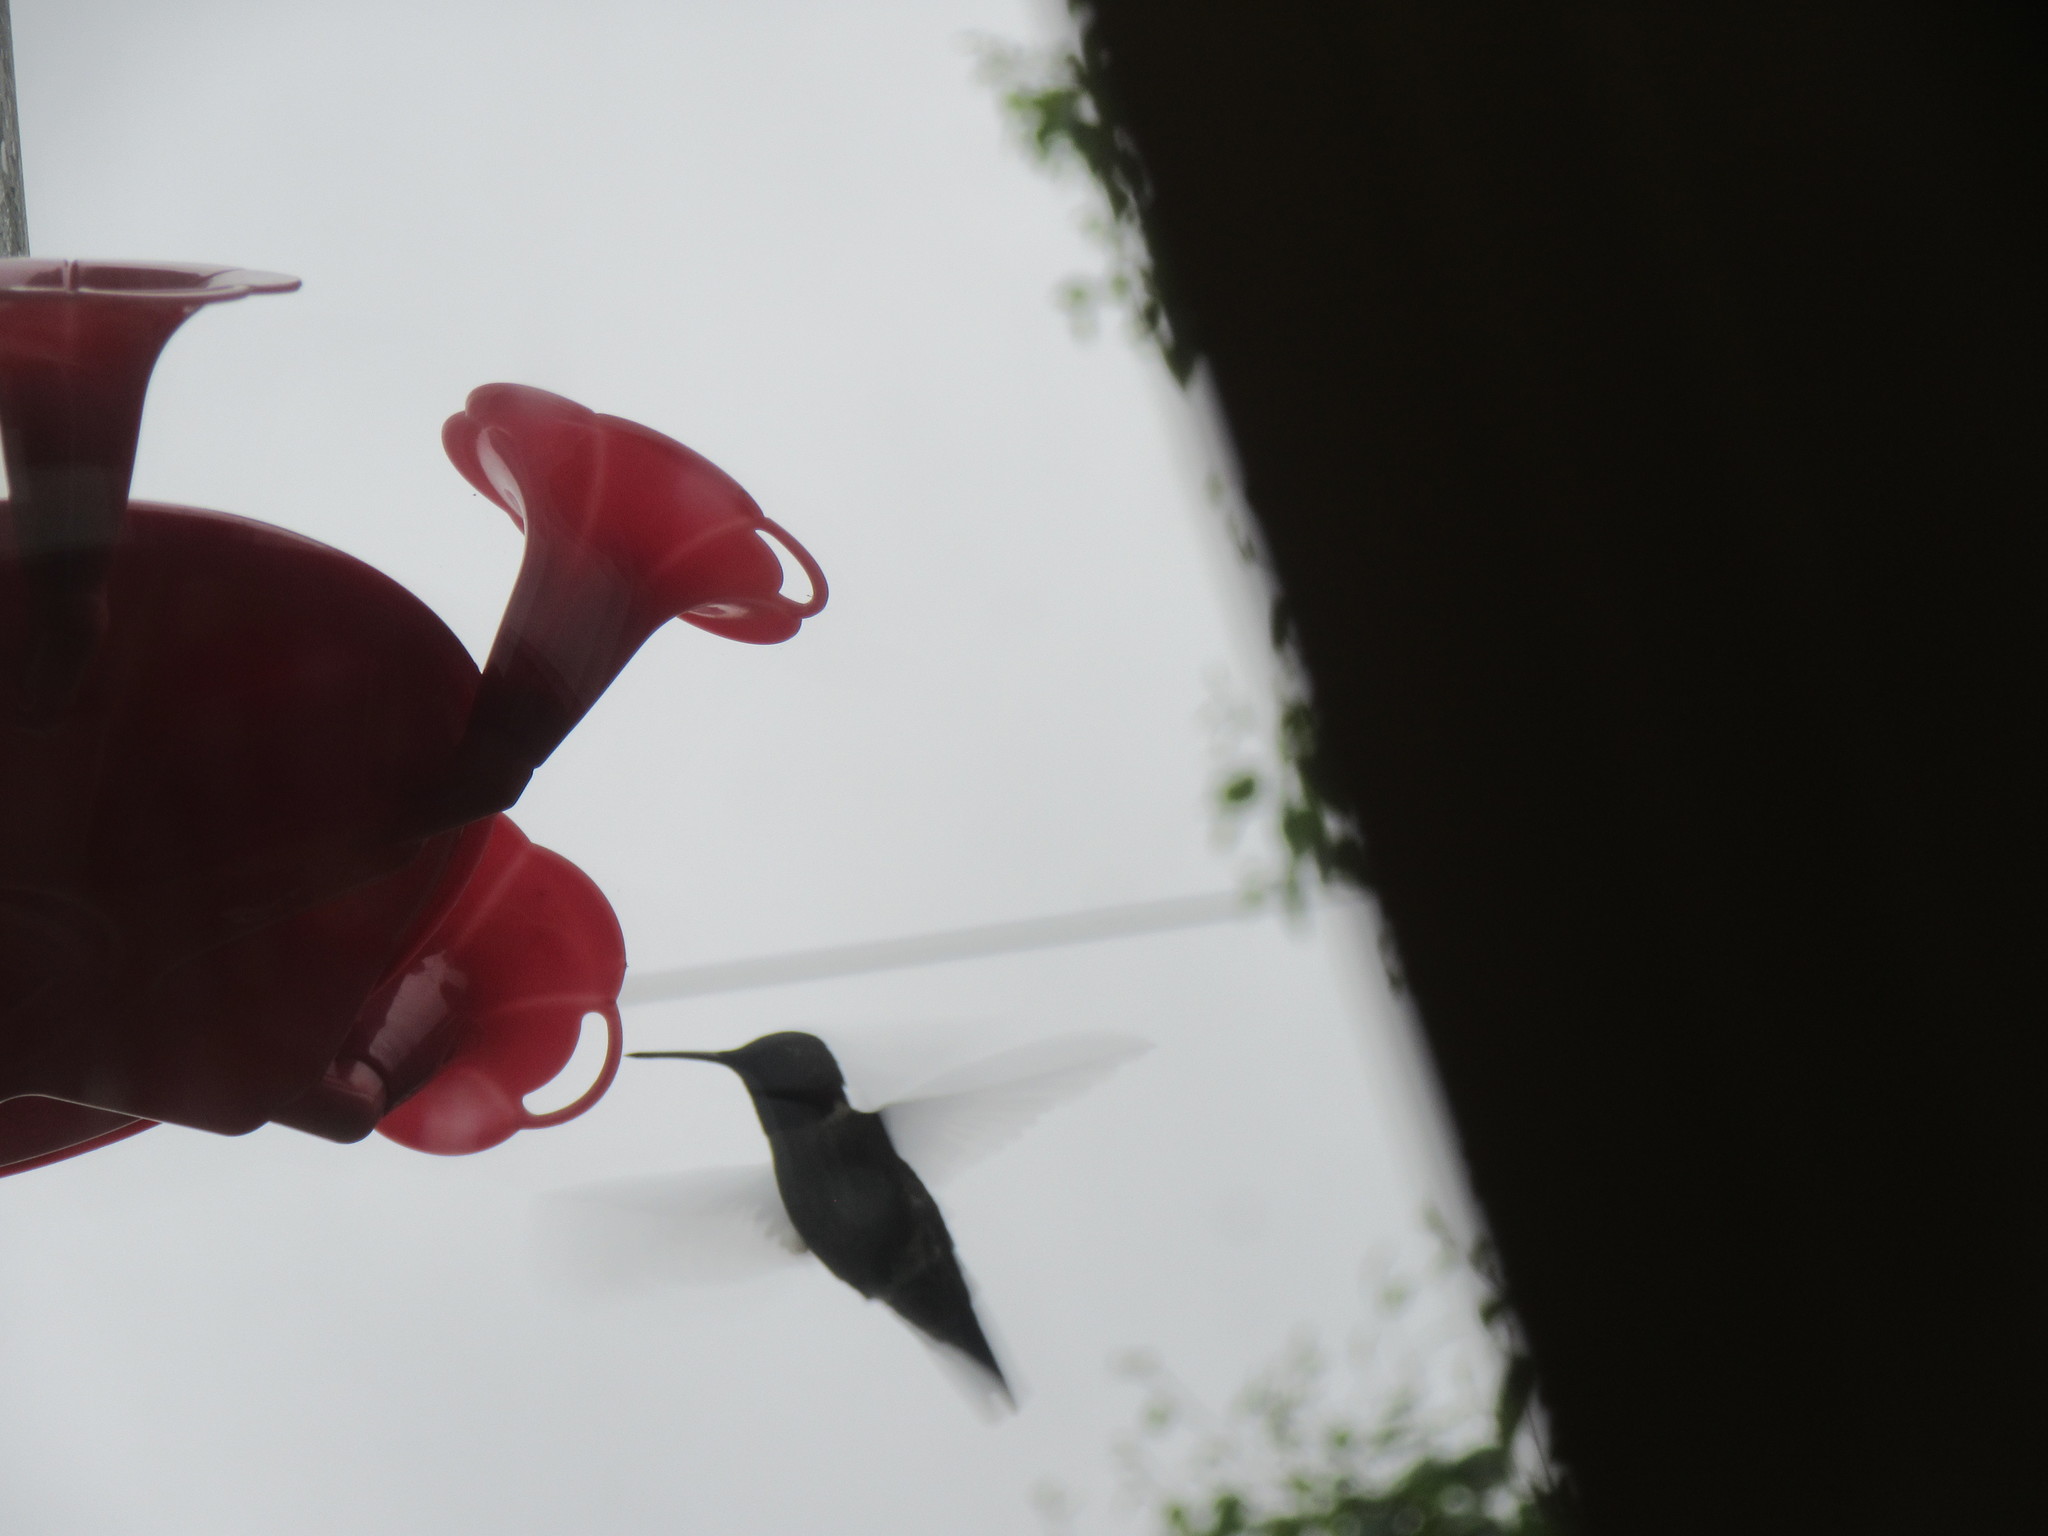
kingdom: Animalia
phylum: Chordata
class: Aves
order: Apodiformes
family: Trochilidae
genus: Archilochus
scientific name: Archilochus colubris
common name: Ruby-throated hummingbird
